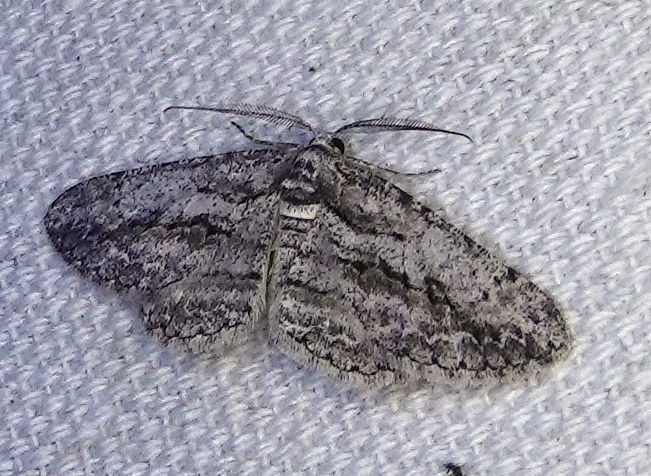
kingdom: Animalia
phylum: Arthropoda
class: Insecta
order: Lepidoptera
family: Geometridae
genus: Anavitrinella
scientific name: Anavitrinella pampinaria
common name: Common gray
